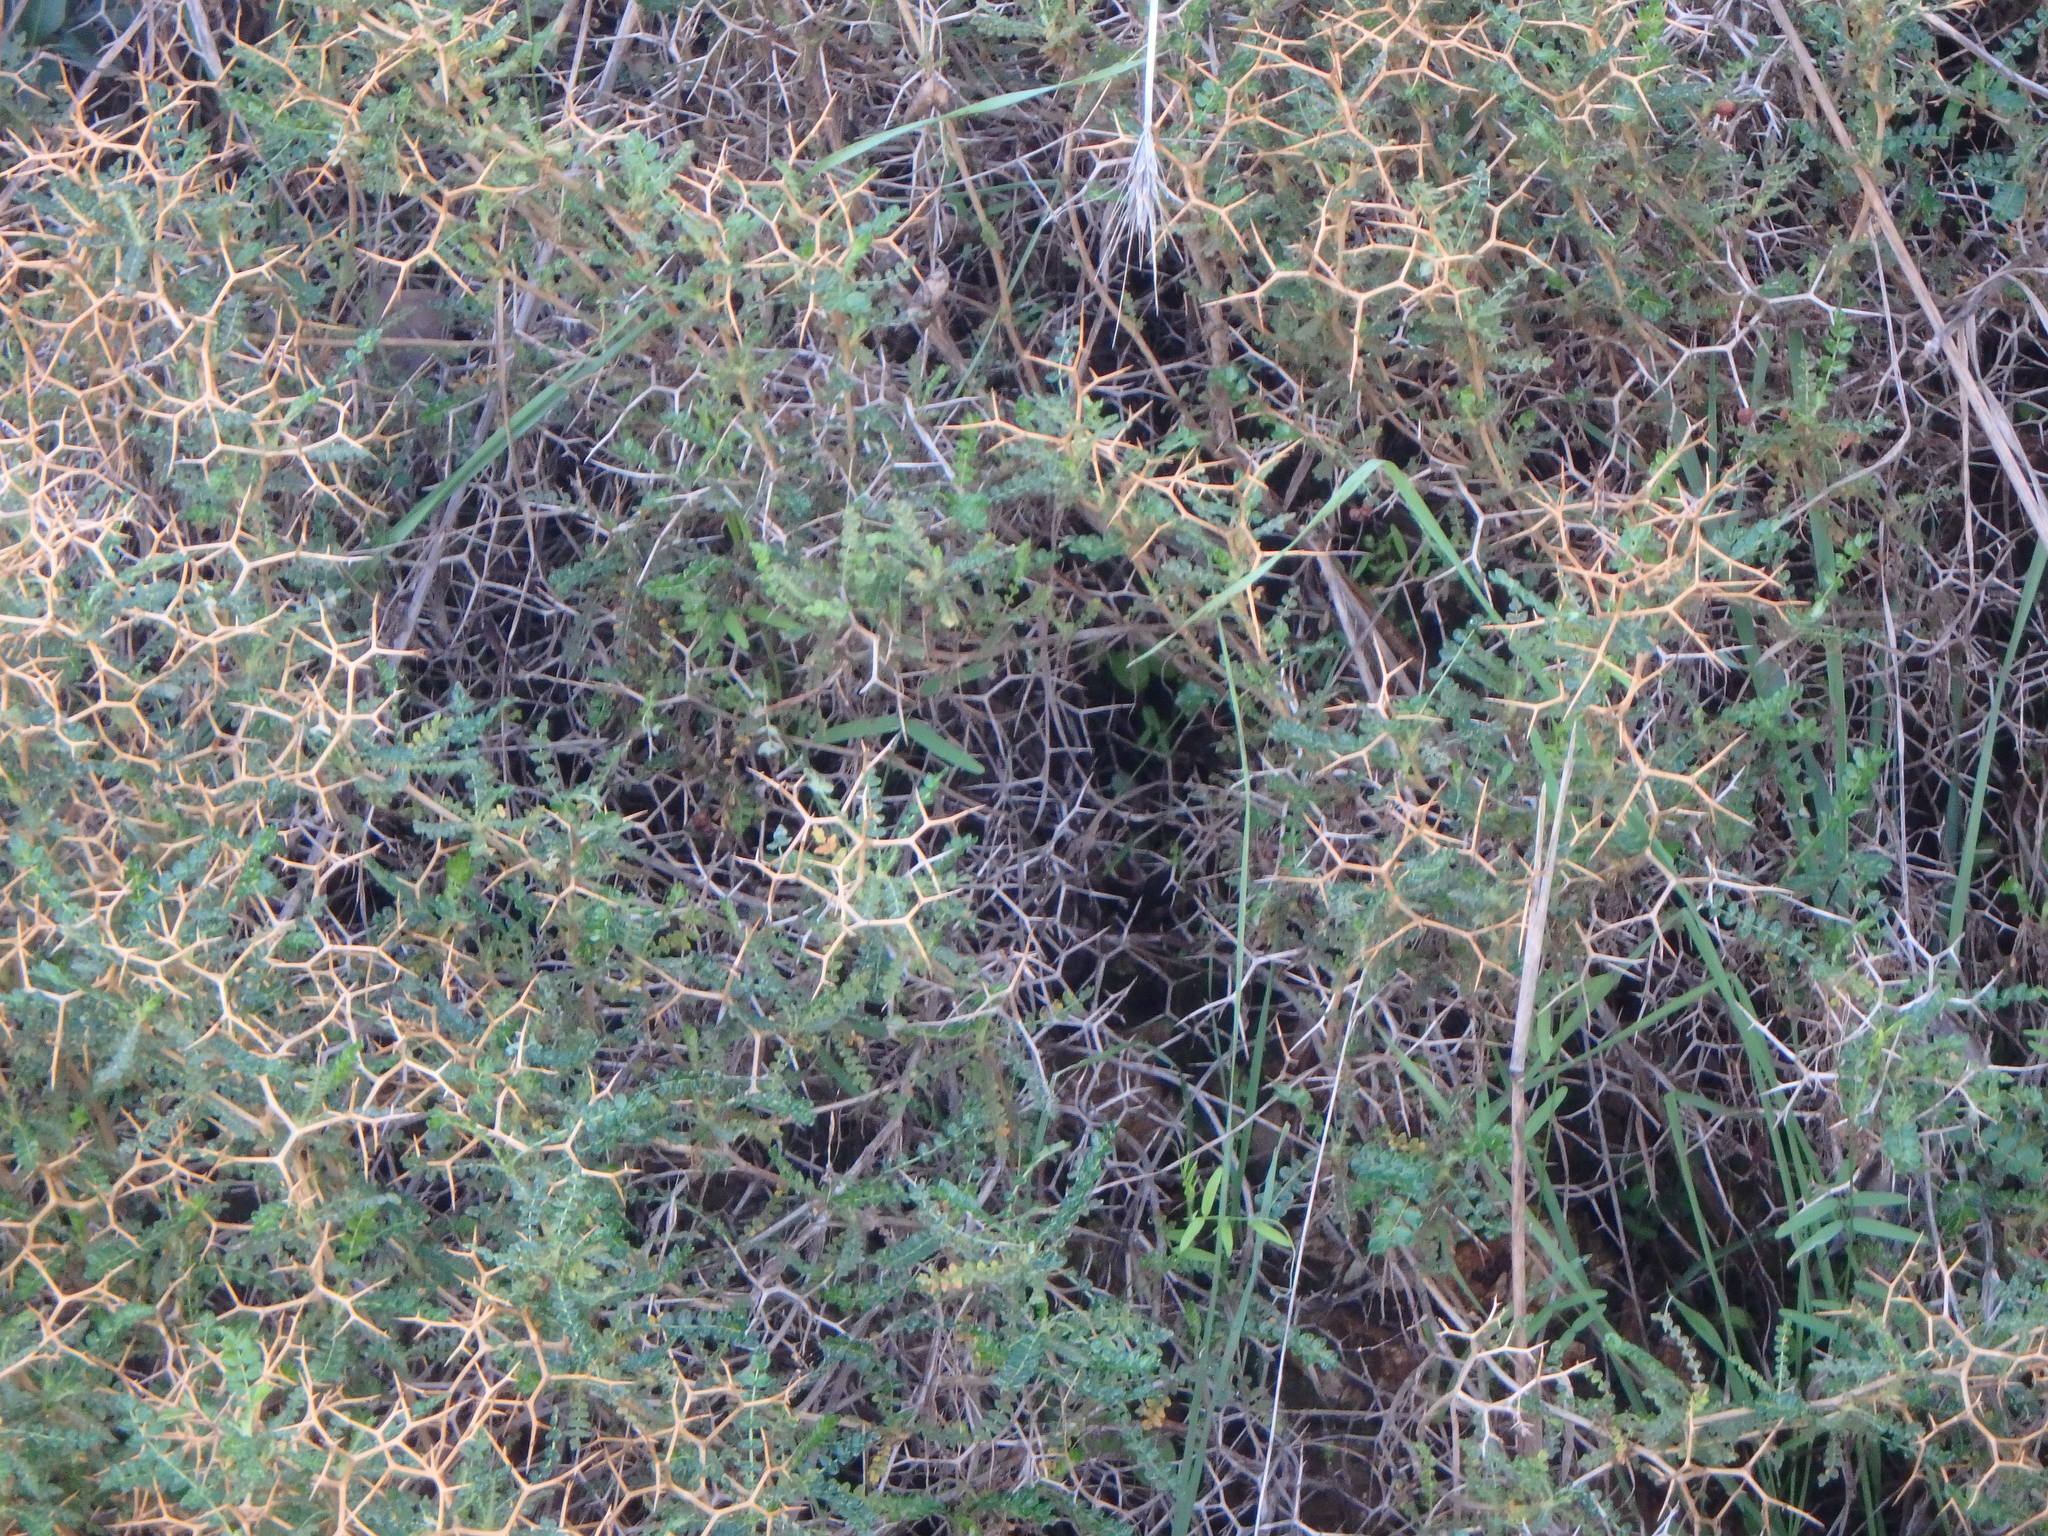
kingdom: Plantae
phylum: Tracheophyta
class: Magnoliopsida
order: Rosales
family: Rosaceae
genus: Sarcopoterium
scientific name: Sarcopoterium spinosum
